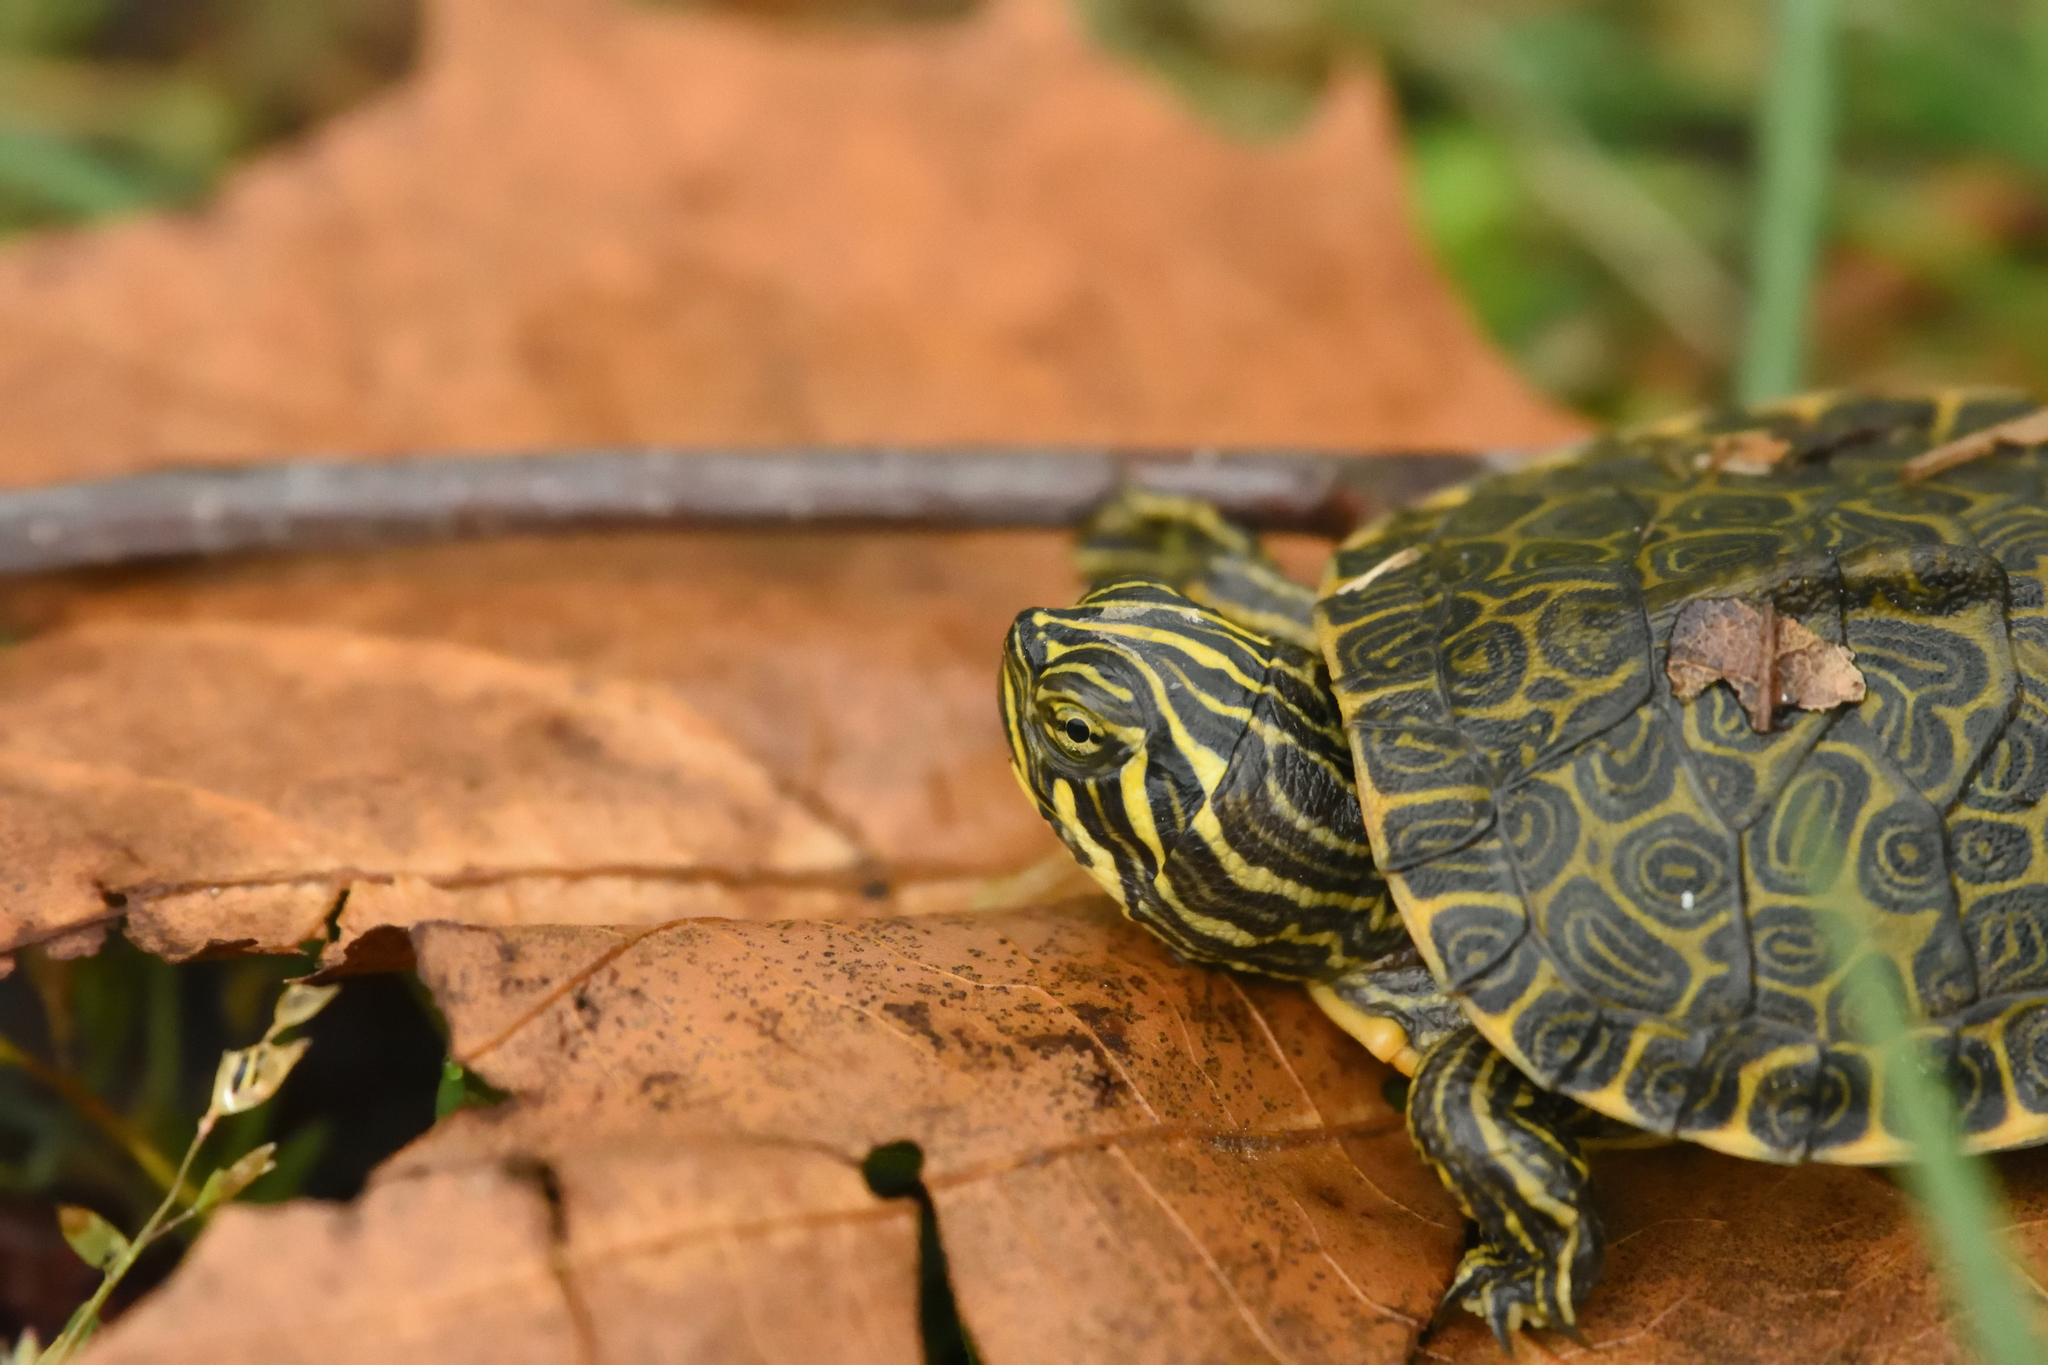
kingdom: Animalia
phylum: Chordata
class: Testudines
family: Emydidae
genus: Pseudemys
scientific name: Pseudemys concinna
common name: Eastern river cooter
